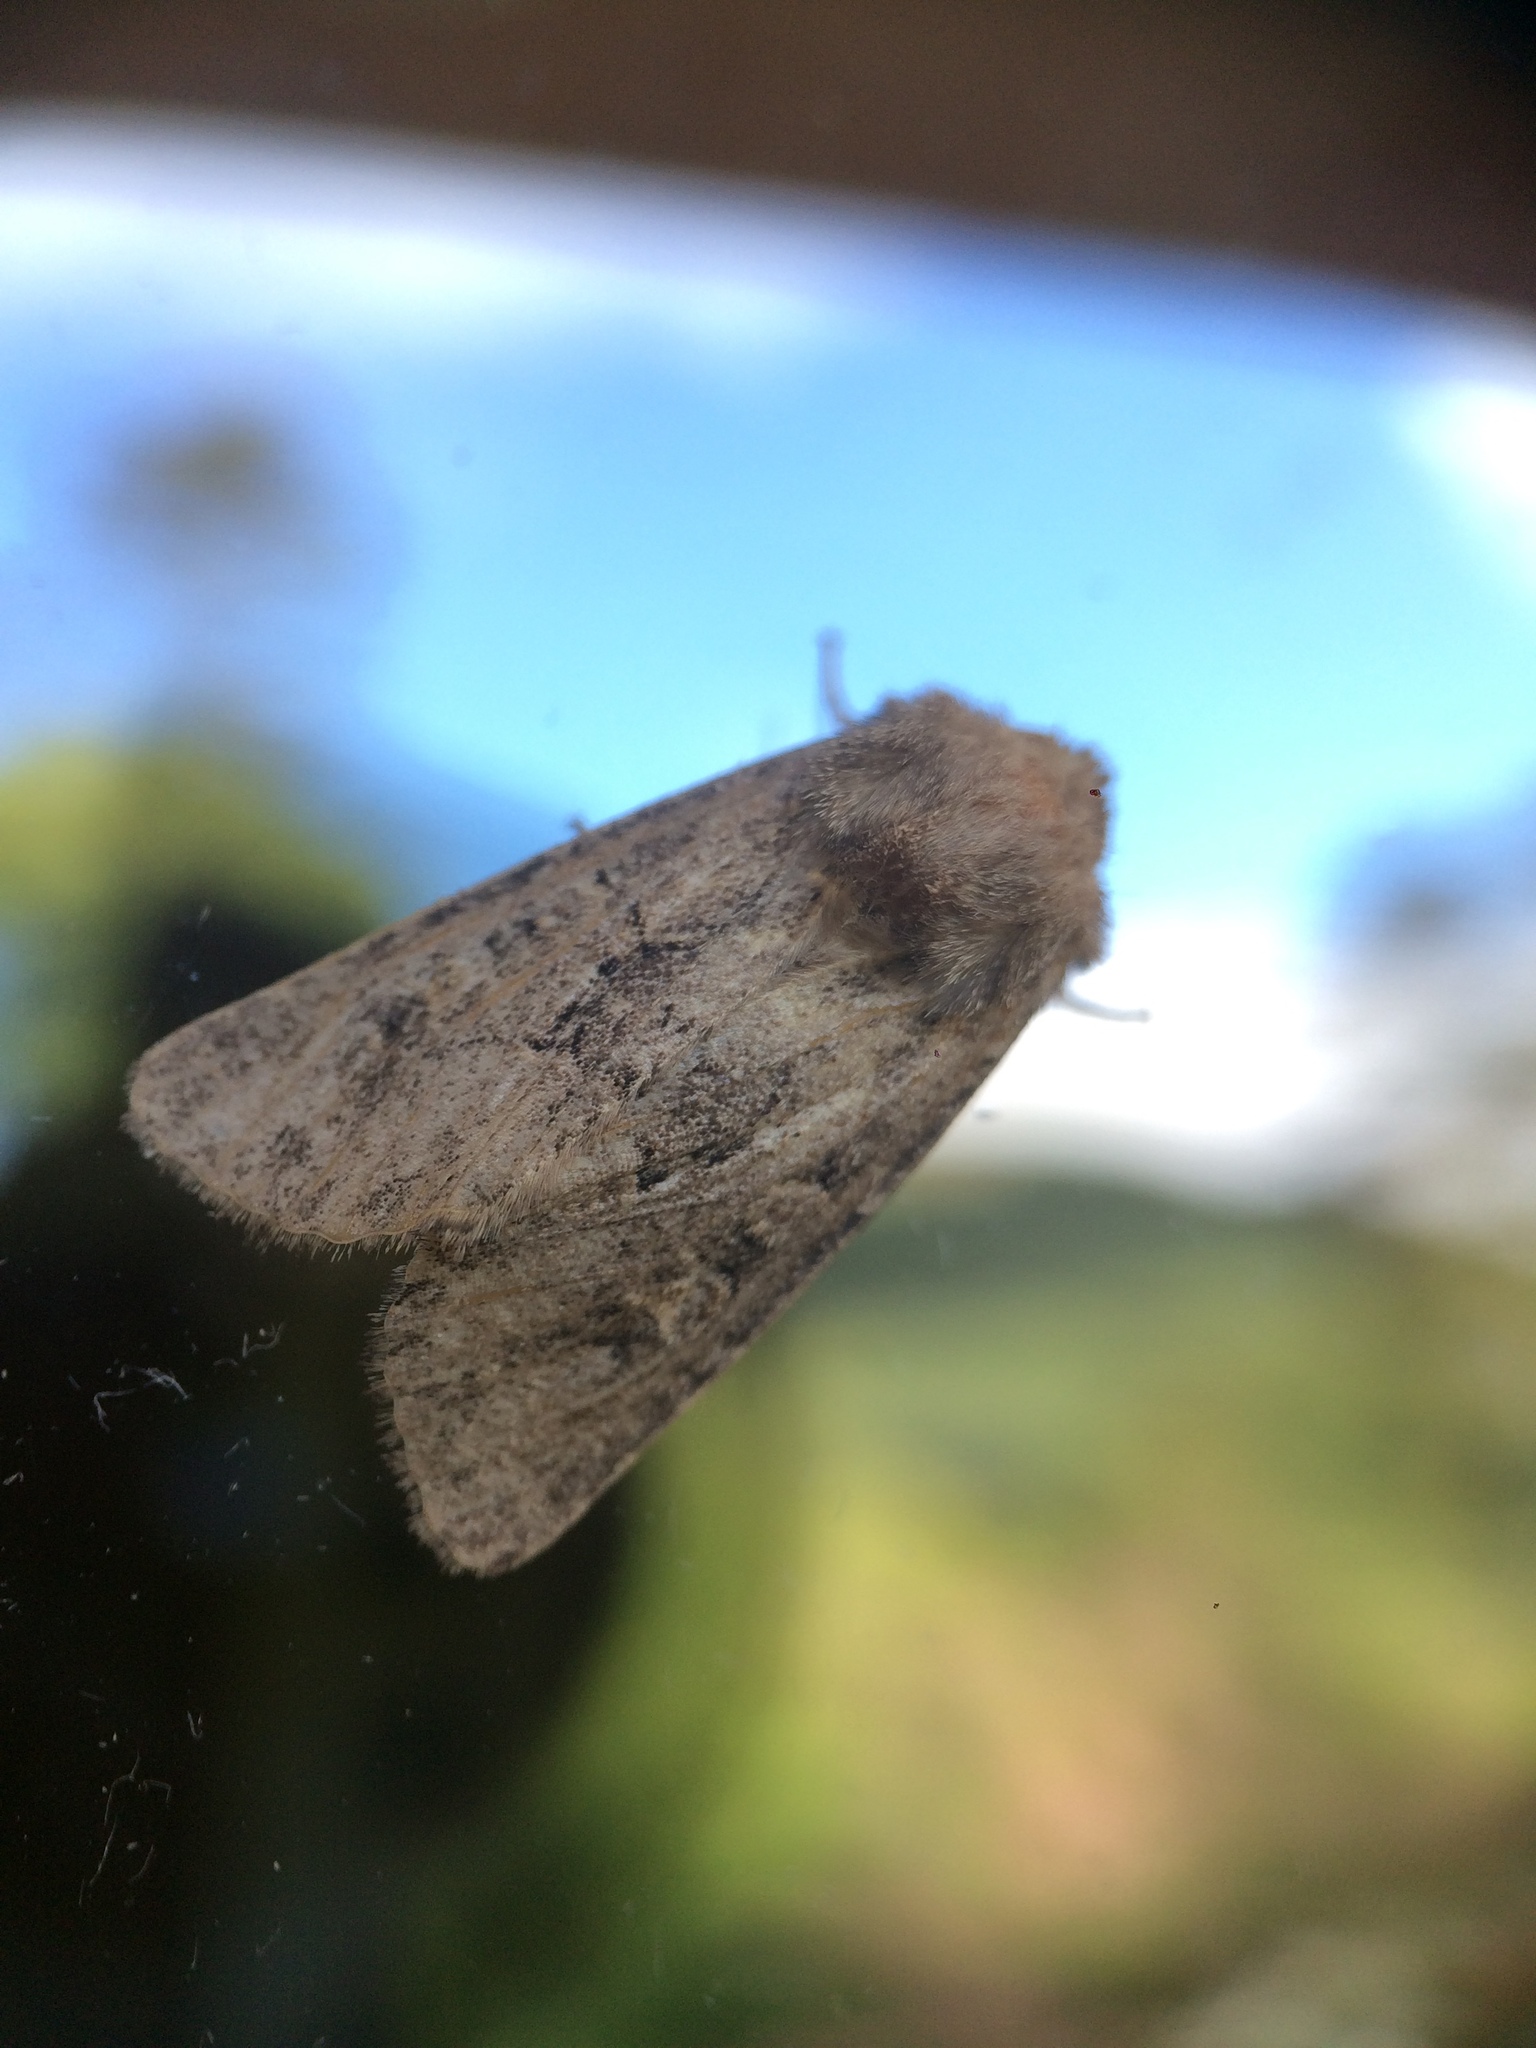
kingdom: Animalia
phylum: Arthropoda
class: Insecta
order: Lepidoptera
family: Noctuidae
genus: Luperina
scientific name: Luperina testacea
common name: Flounced rustic
